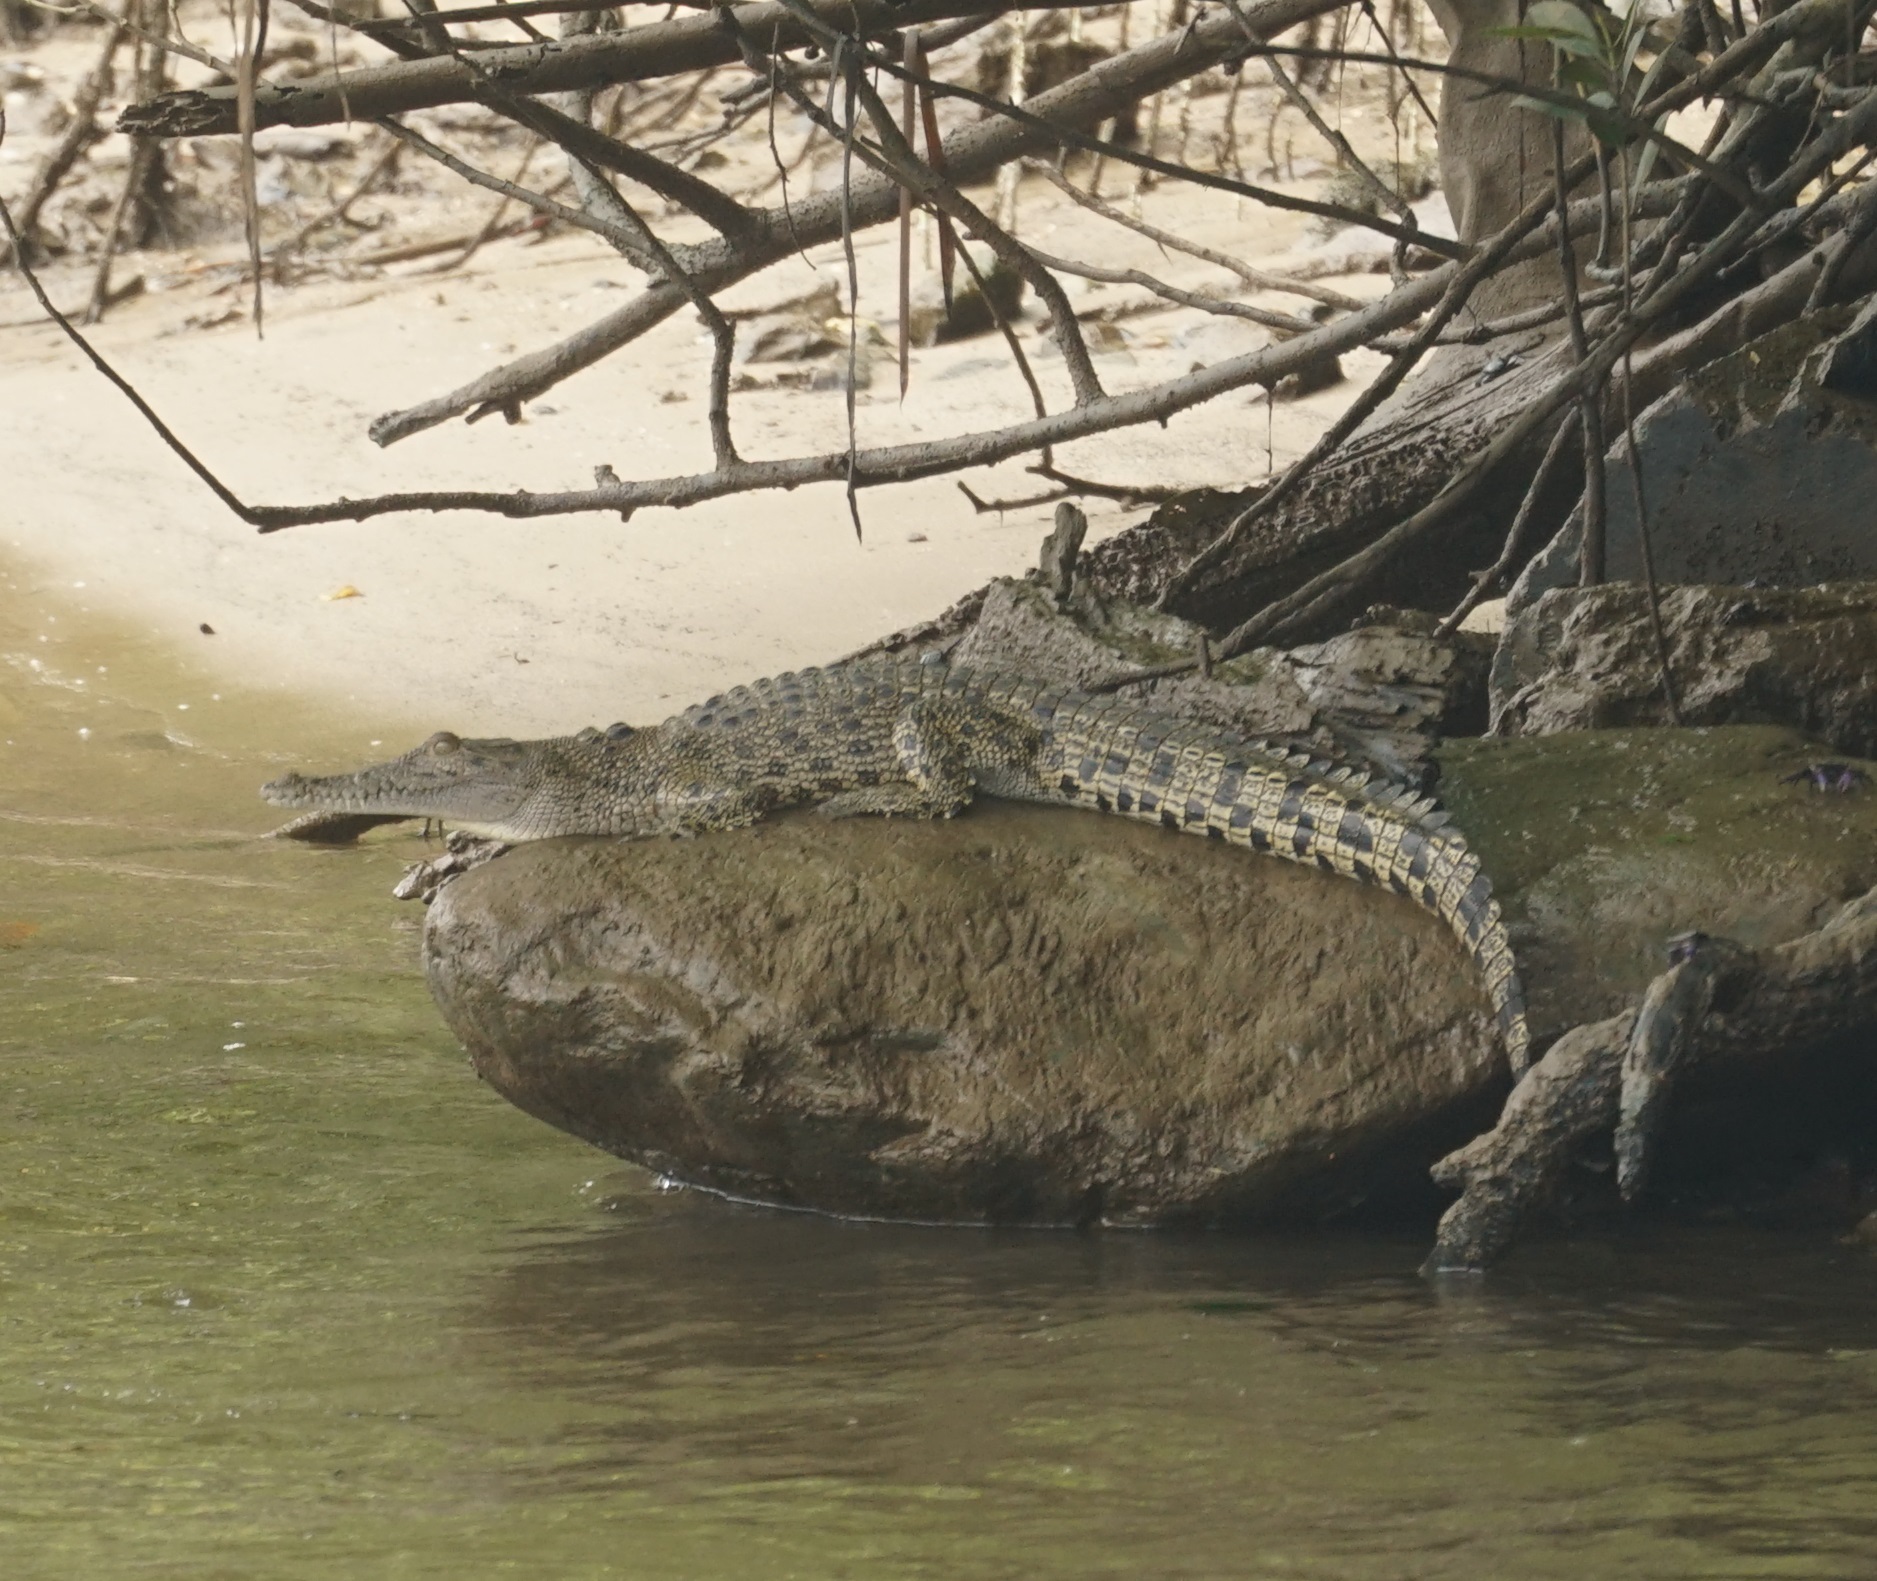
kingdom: Animalia
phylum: Chordata
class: Crocodylia
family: Crocodylidae
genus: Crocodylus
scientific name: Crocodylus porosus
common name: Saltwater crocodile
